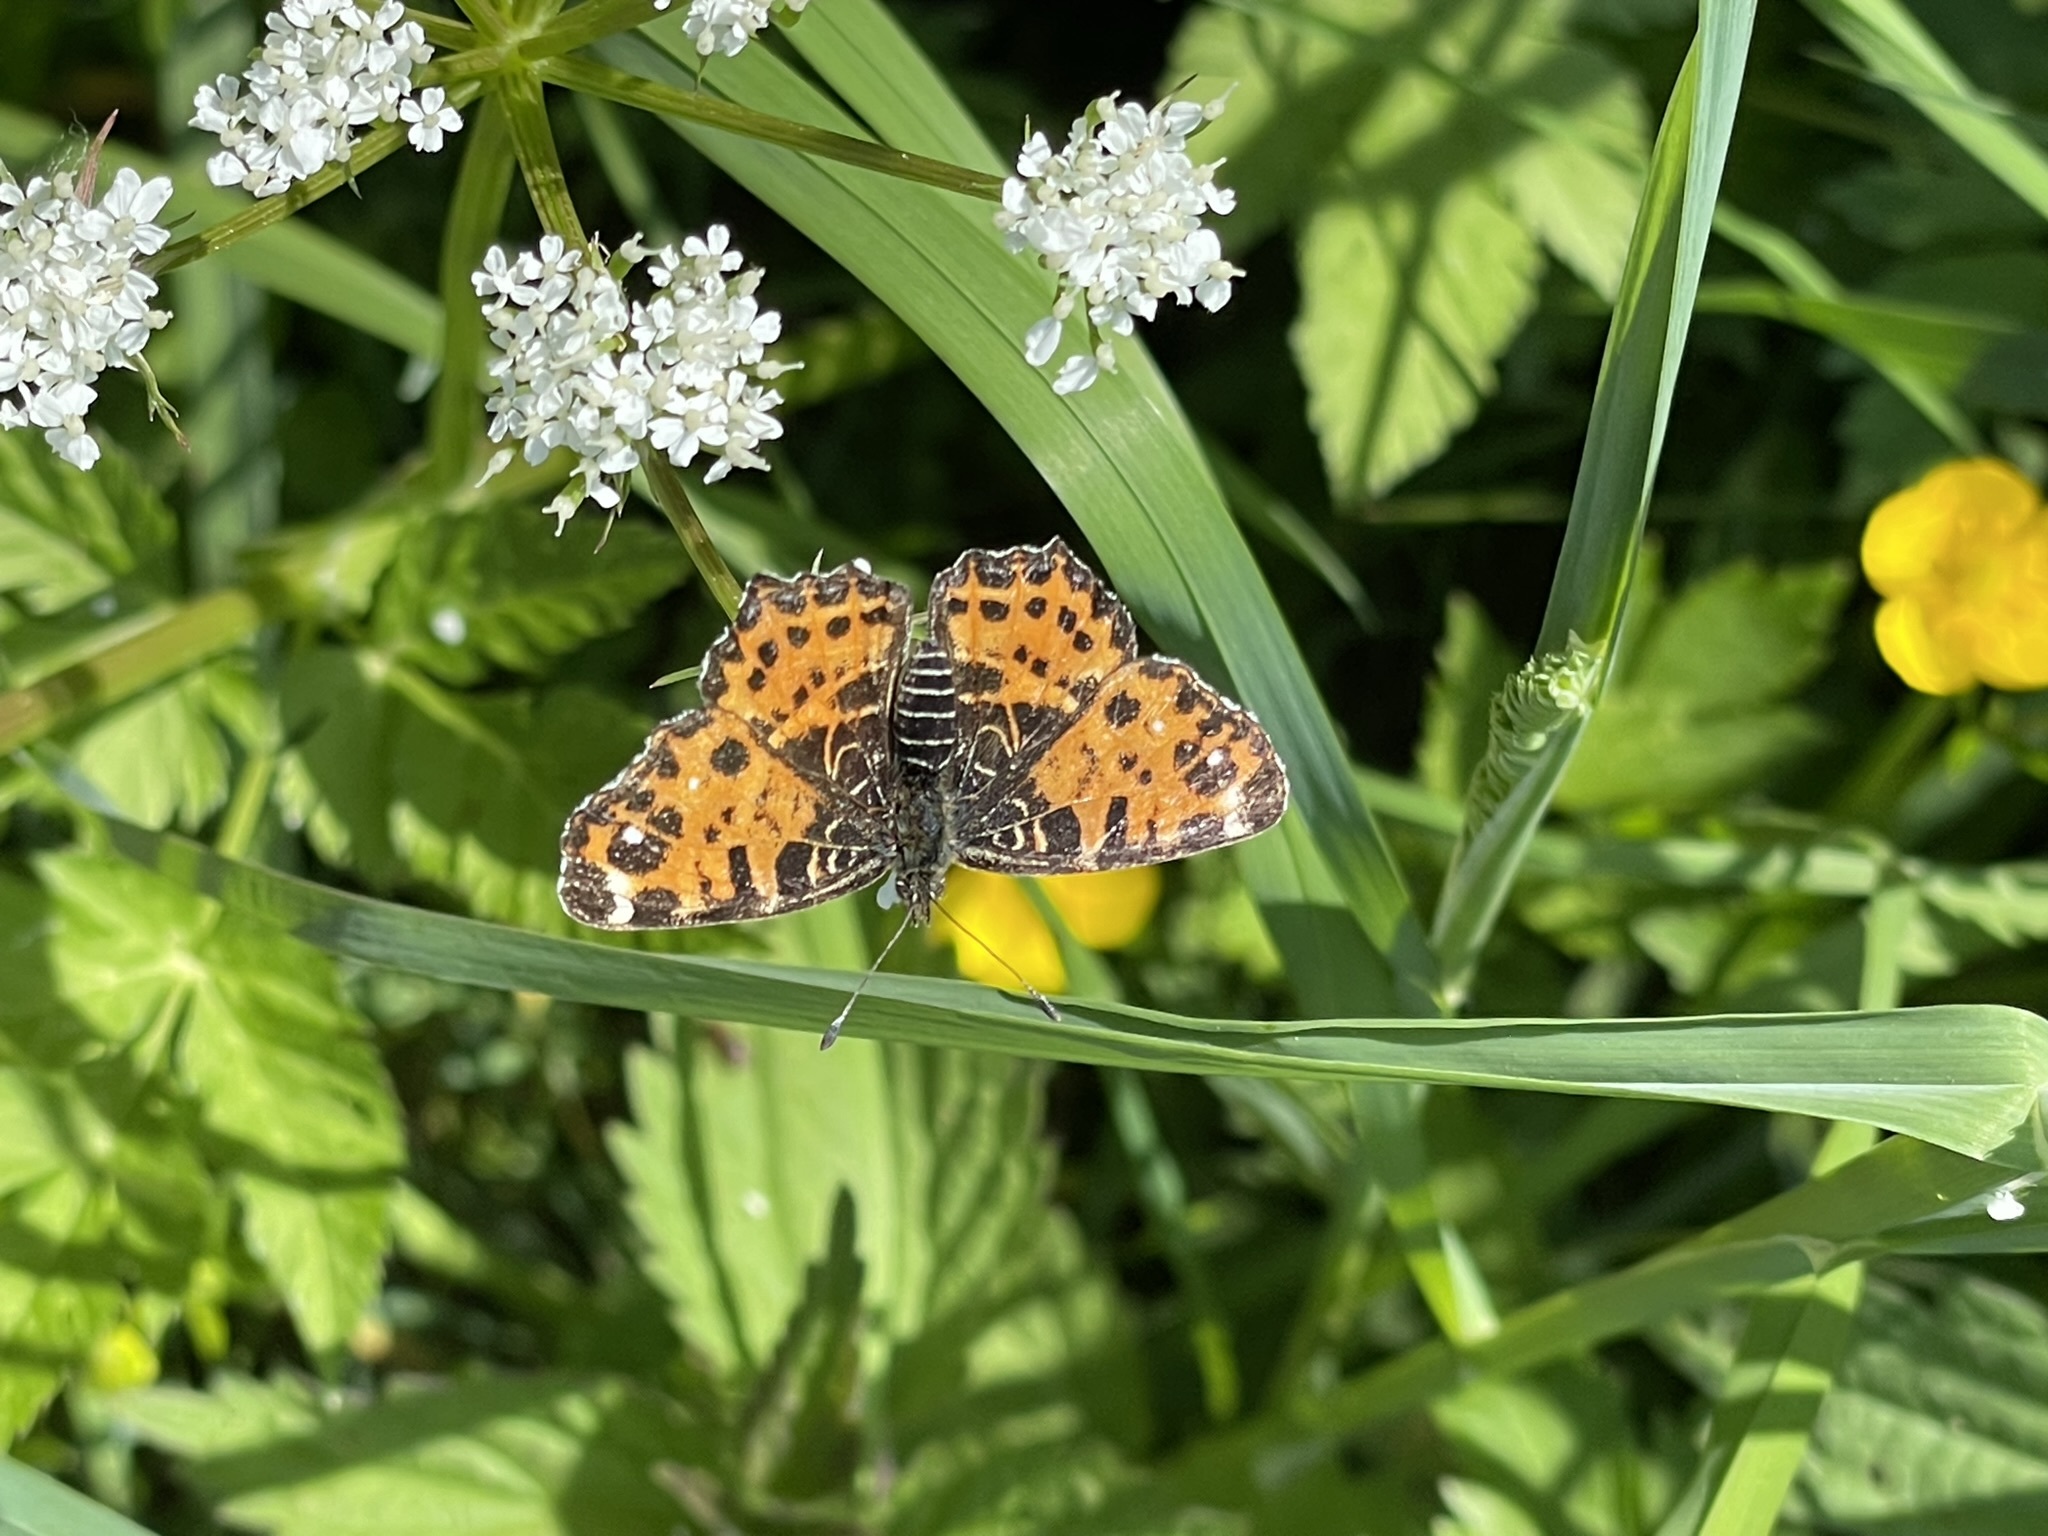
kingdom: Animalia
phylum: Arthropoda
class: Insecta
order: Lepidoptera
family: Nymphalidae
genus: Araschnia
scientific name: Araschnia levana
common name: Map butterfly
